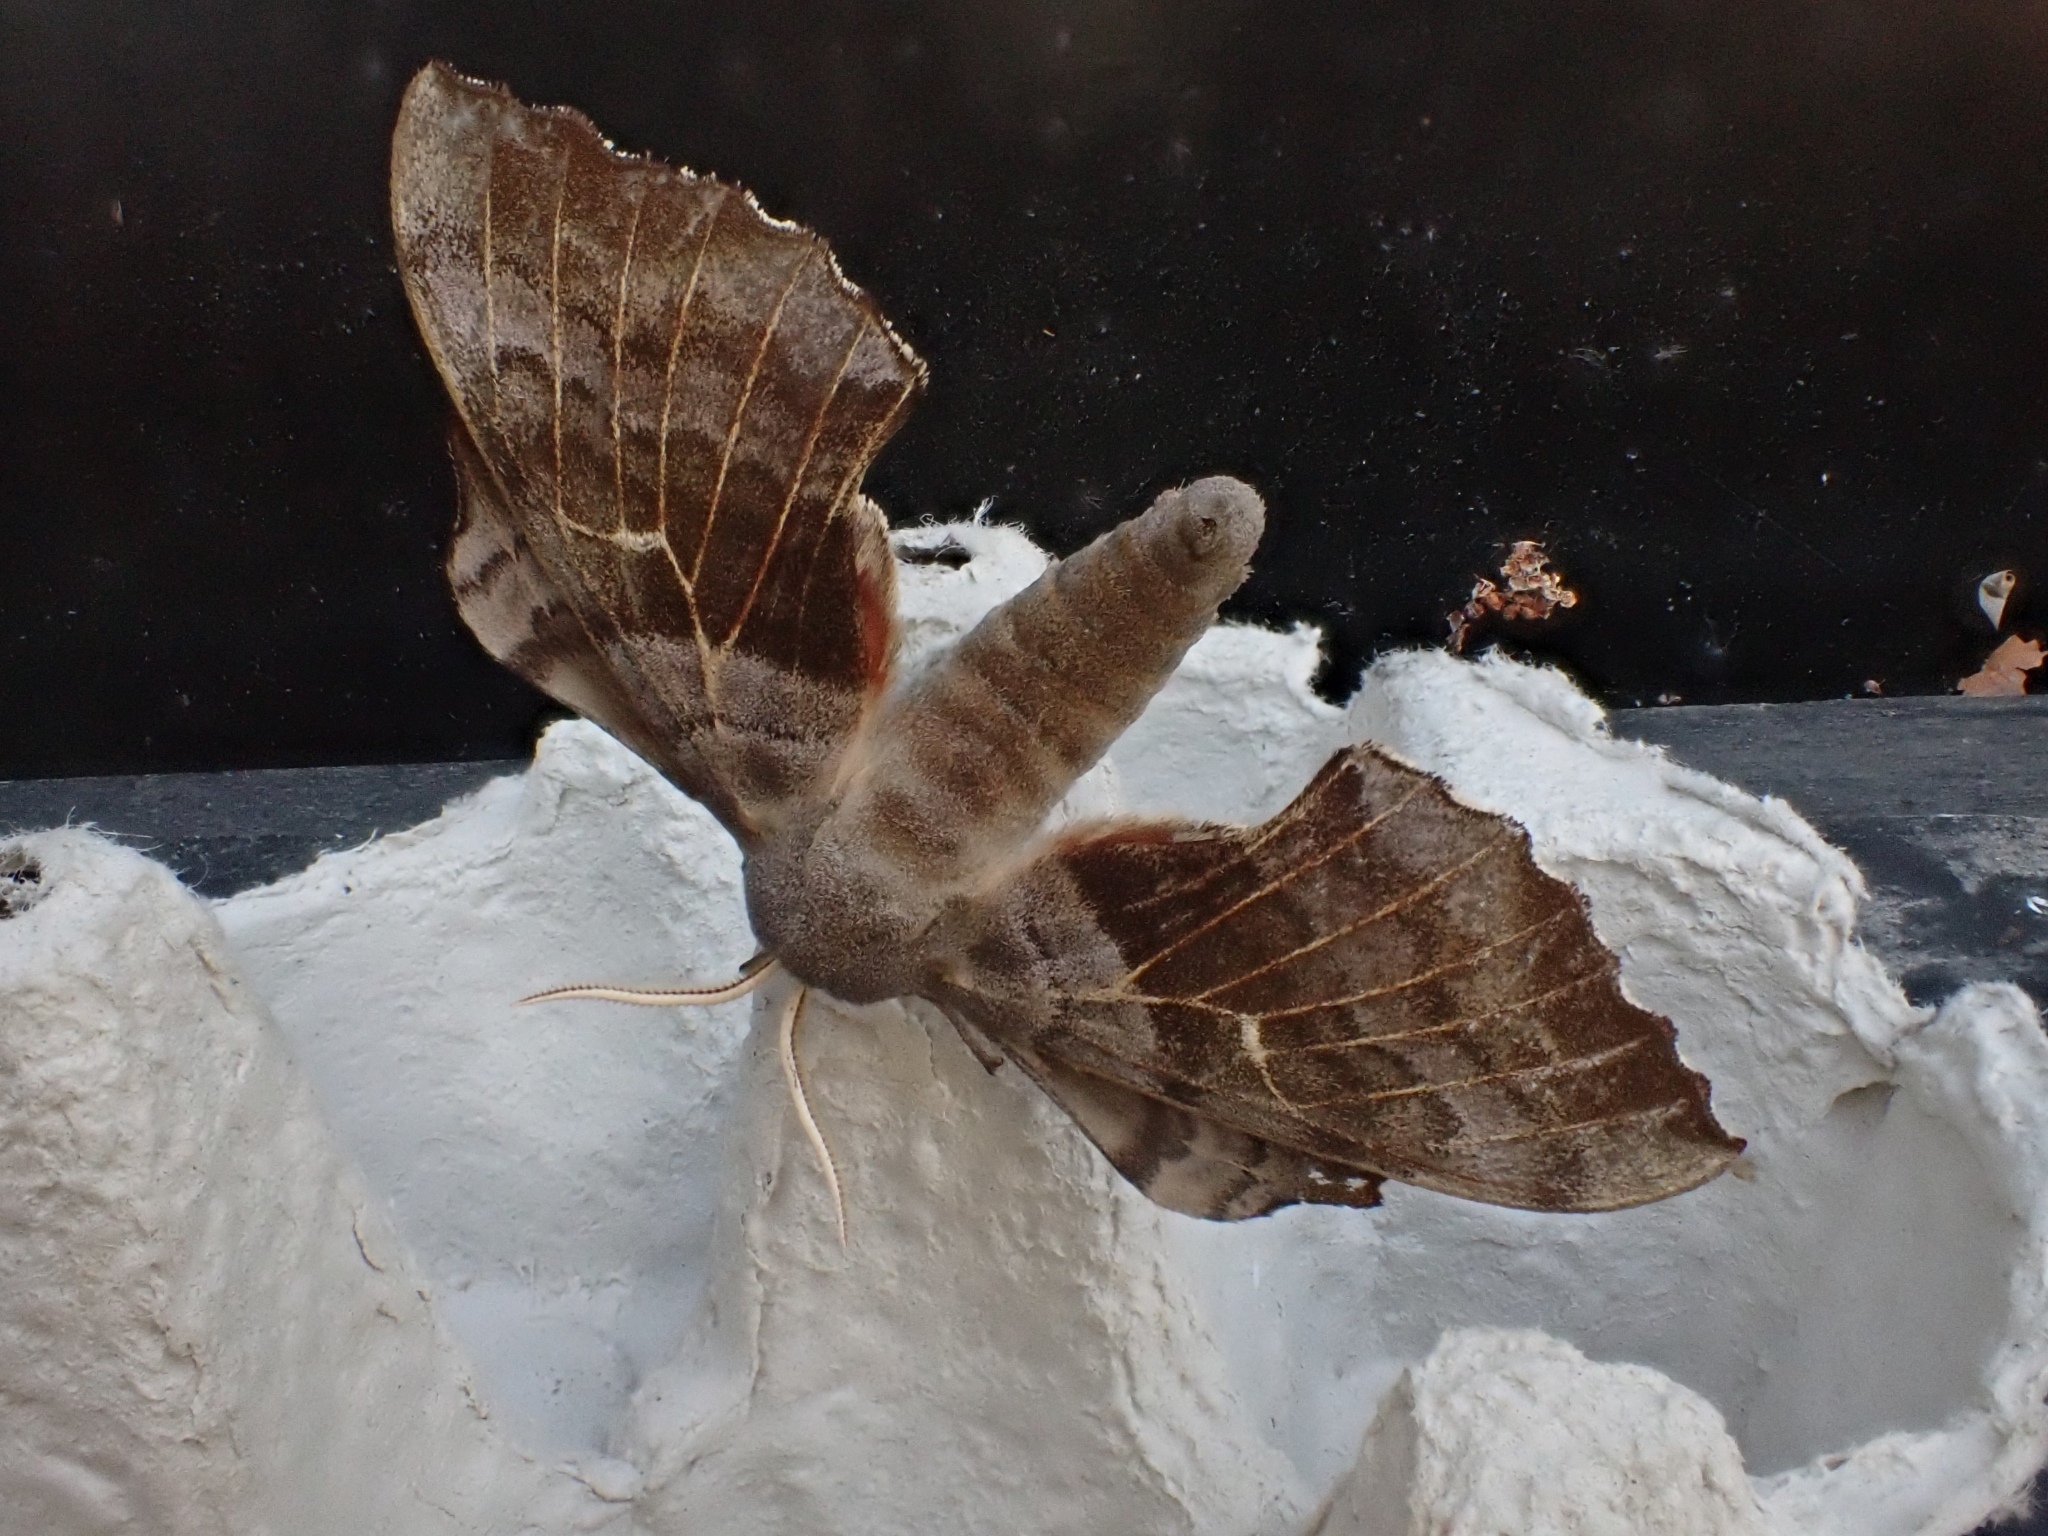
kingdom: Animalia
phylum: Arthropoda
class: Insecta
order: Lepidoptera
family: Sphingidae
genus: Laothoe
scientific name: Laothoe populi
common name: Poplar hawk-moth
